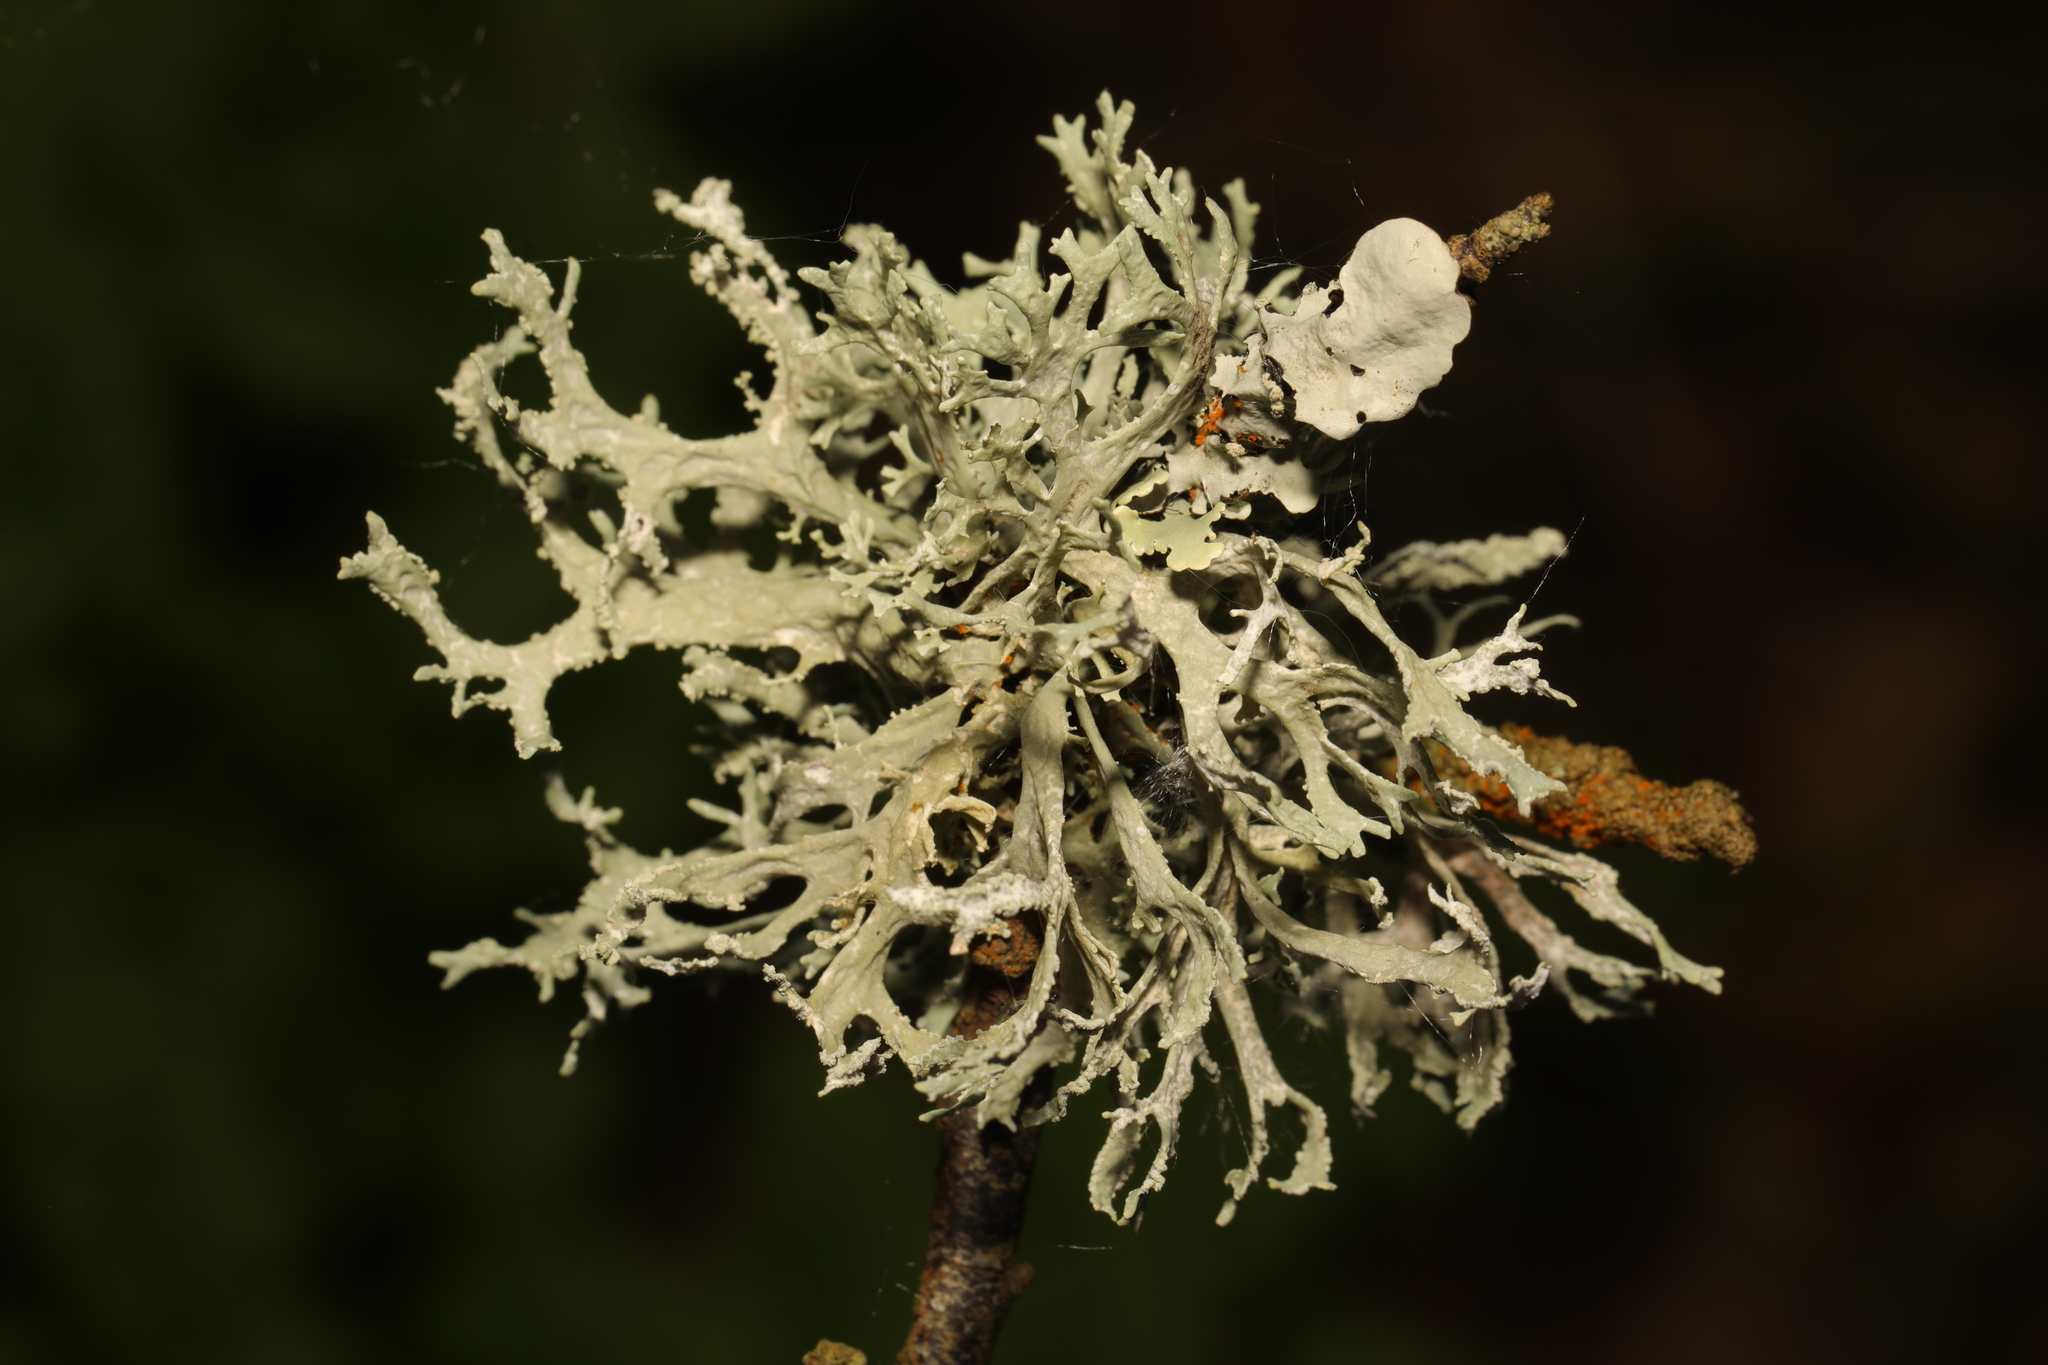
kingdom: Fungi
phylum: Ascomycota
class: Lecanoromycetes
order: Lecanorales
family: Parmeliaceae
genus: Evernia
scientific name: Evernia prunastri
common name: Oak moss
